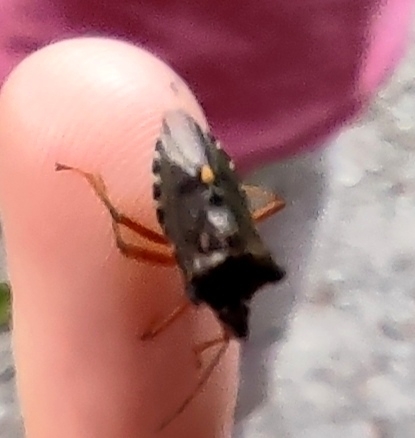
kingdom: Animalia
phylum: Arthropoda
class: Insecta
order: Hemiptera
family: Pentatomidae
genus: Pentatoma
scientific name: Pentatoma rufipes
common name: Forest bug
